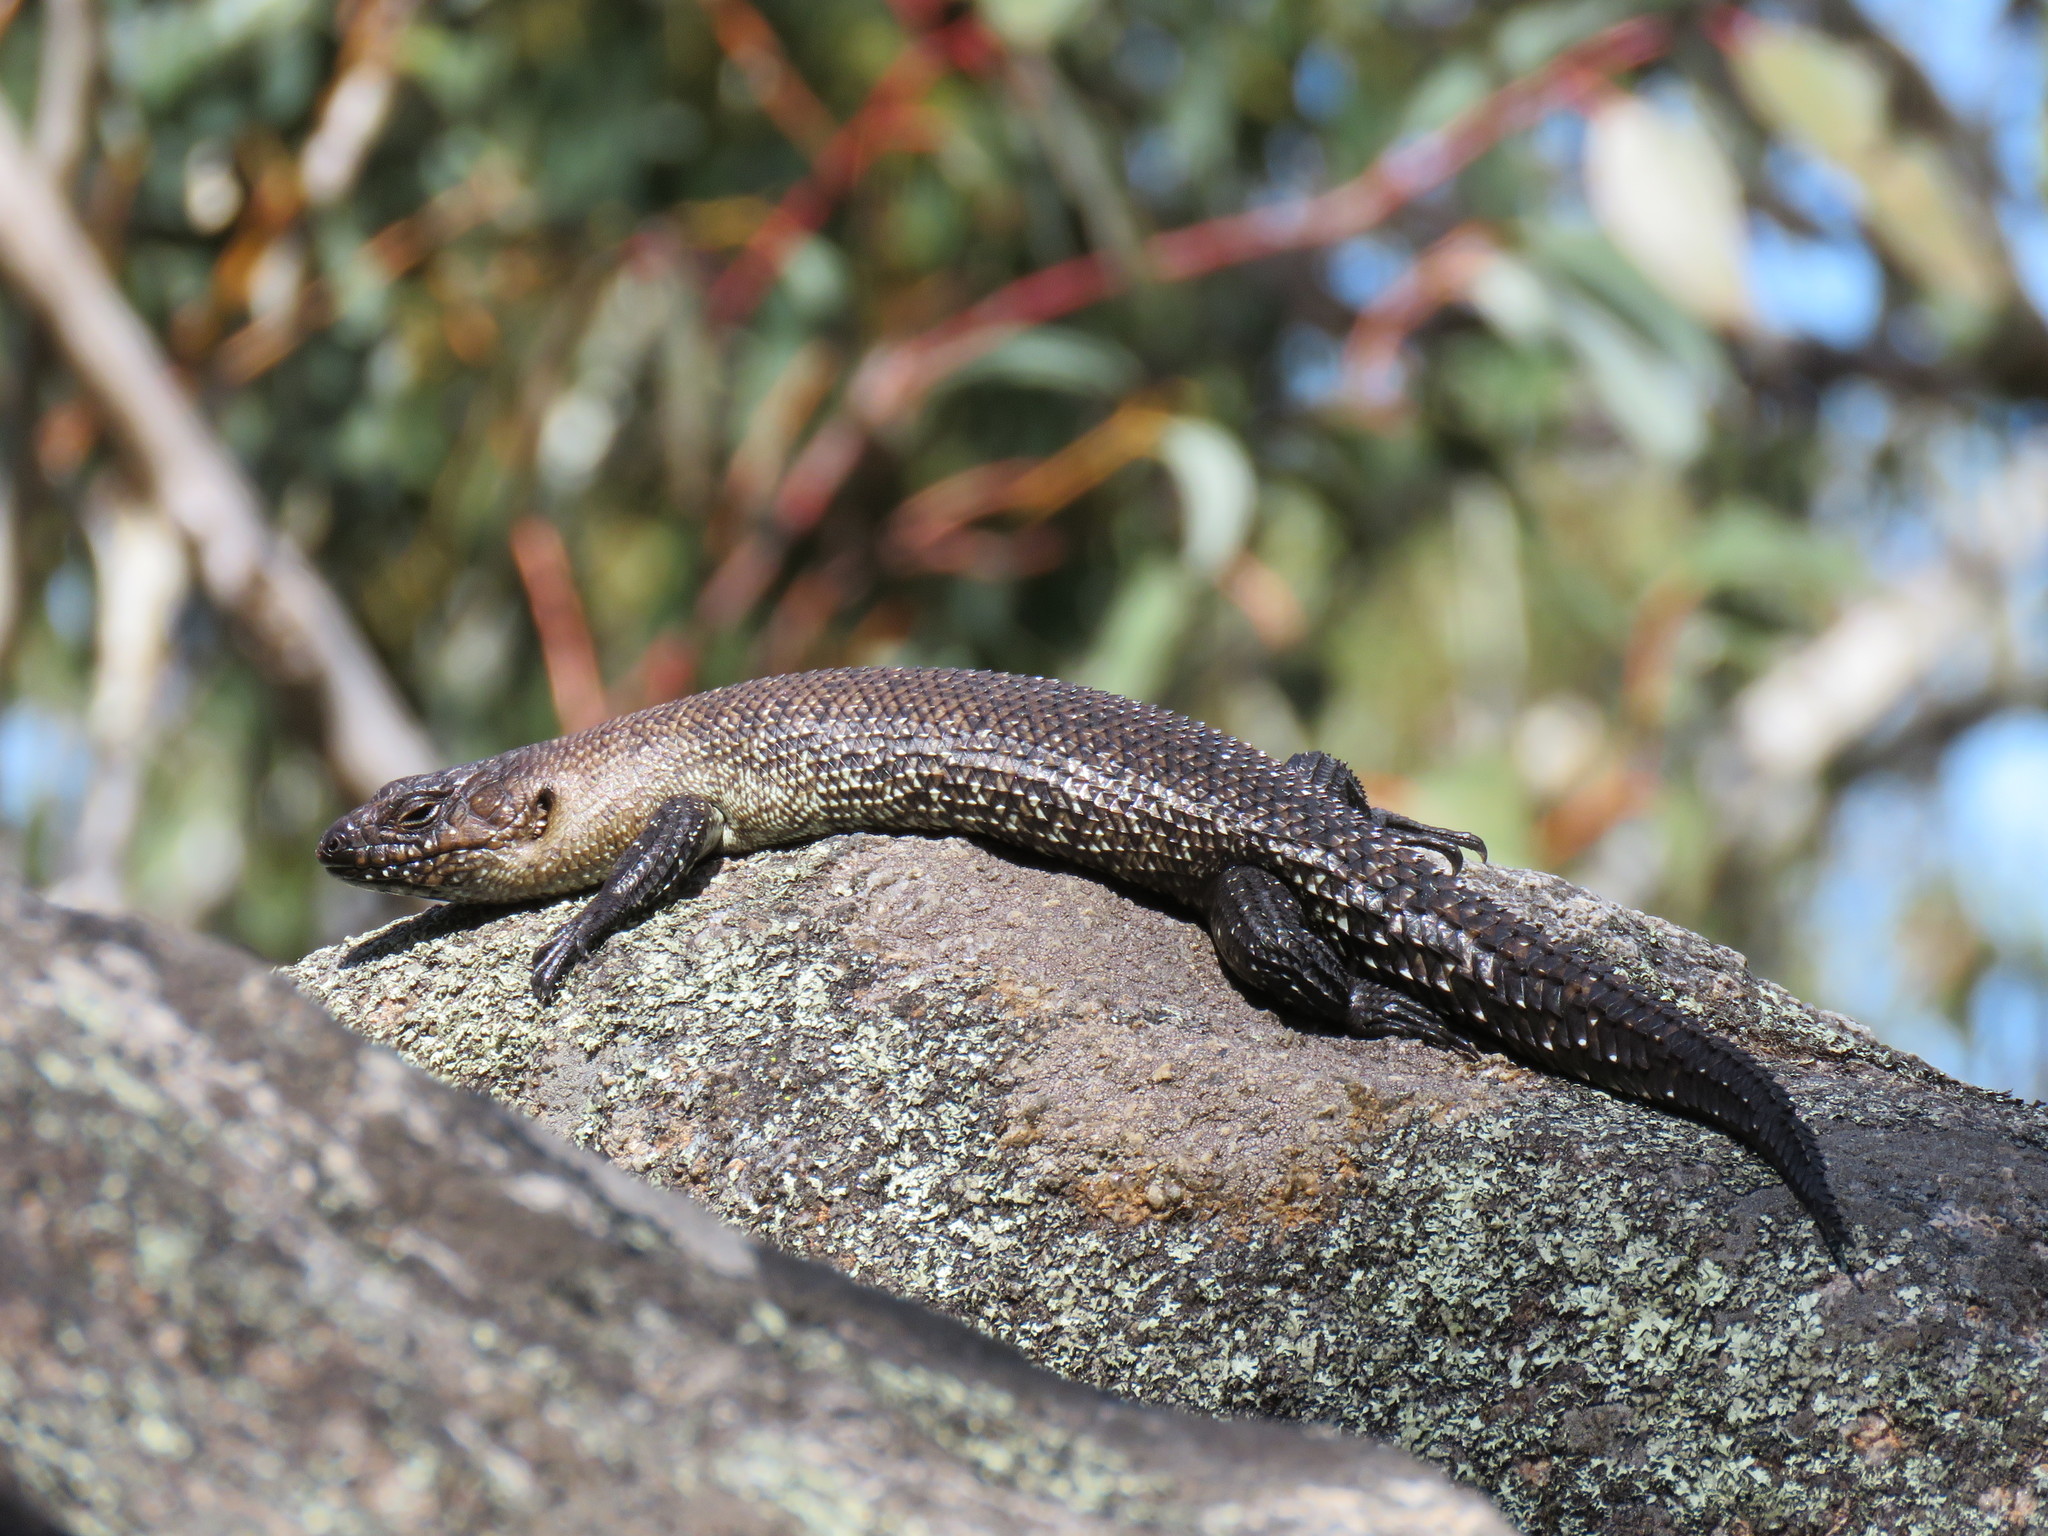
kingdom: Animalia
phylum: Chordata
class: Squamata
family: Scincidae
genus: Egernia
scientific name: Egernia cunninghami
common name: Cunningham's skink
